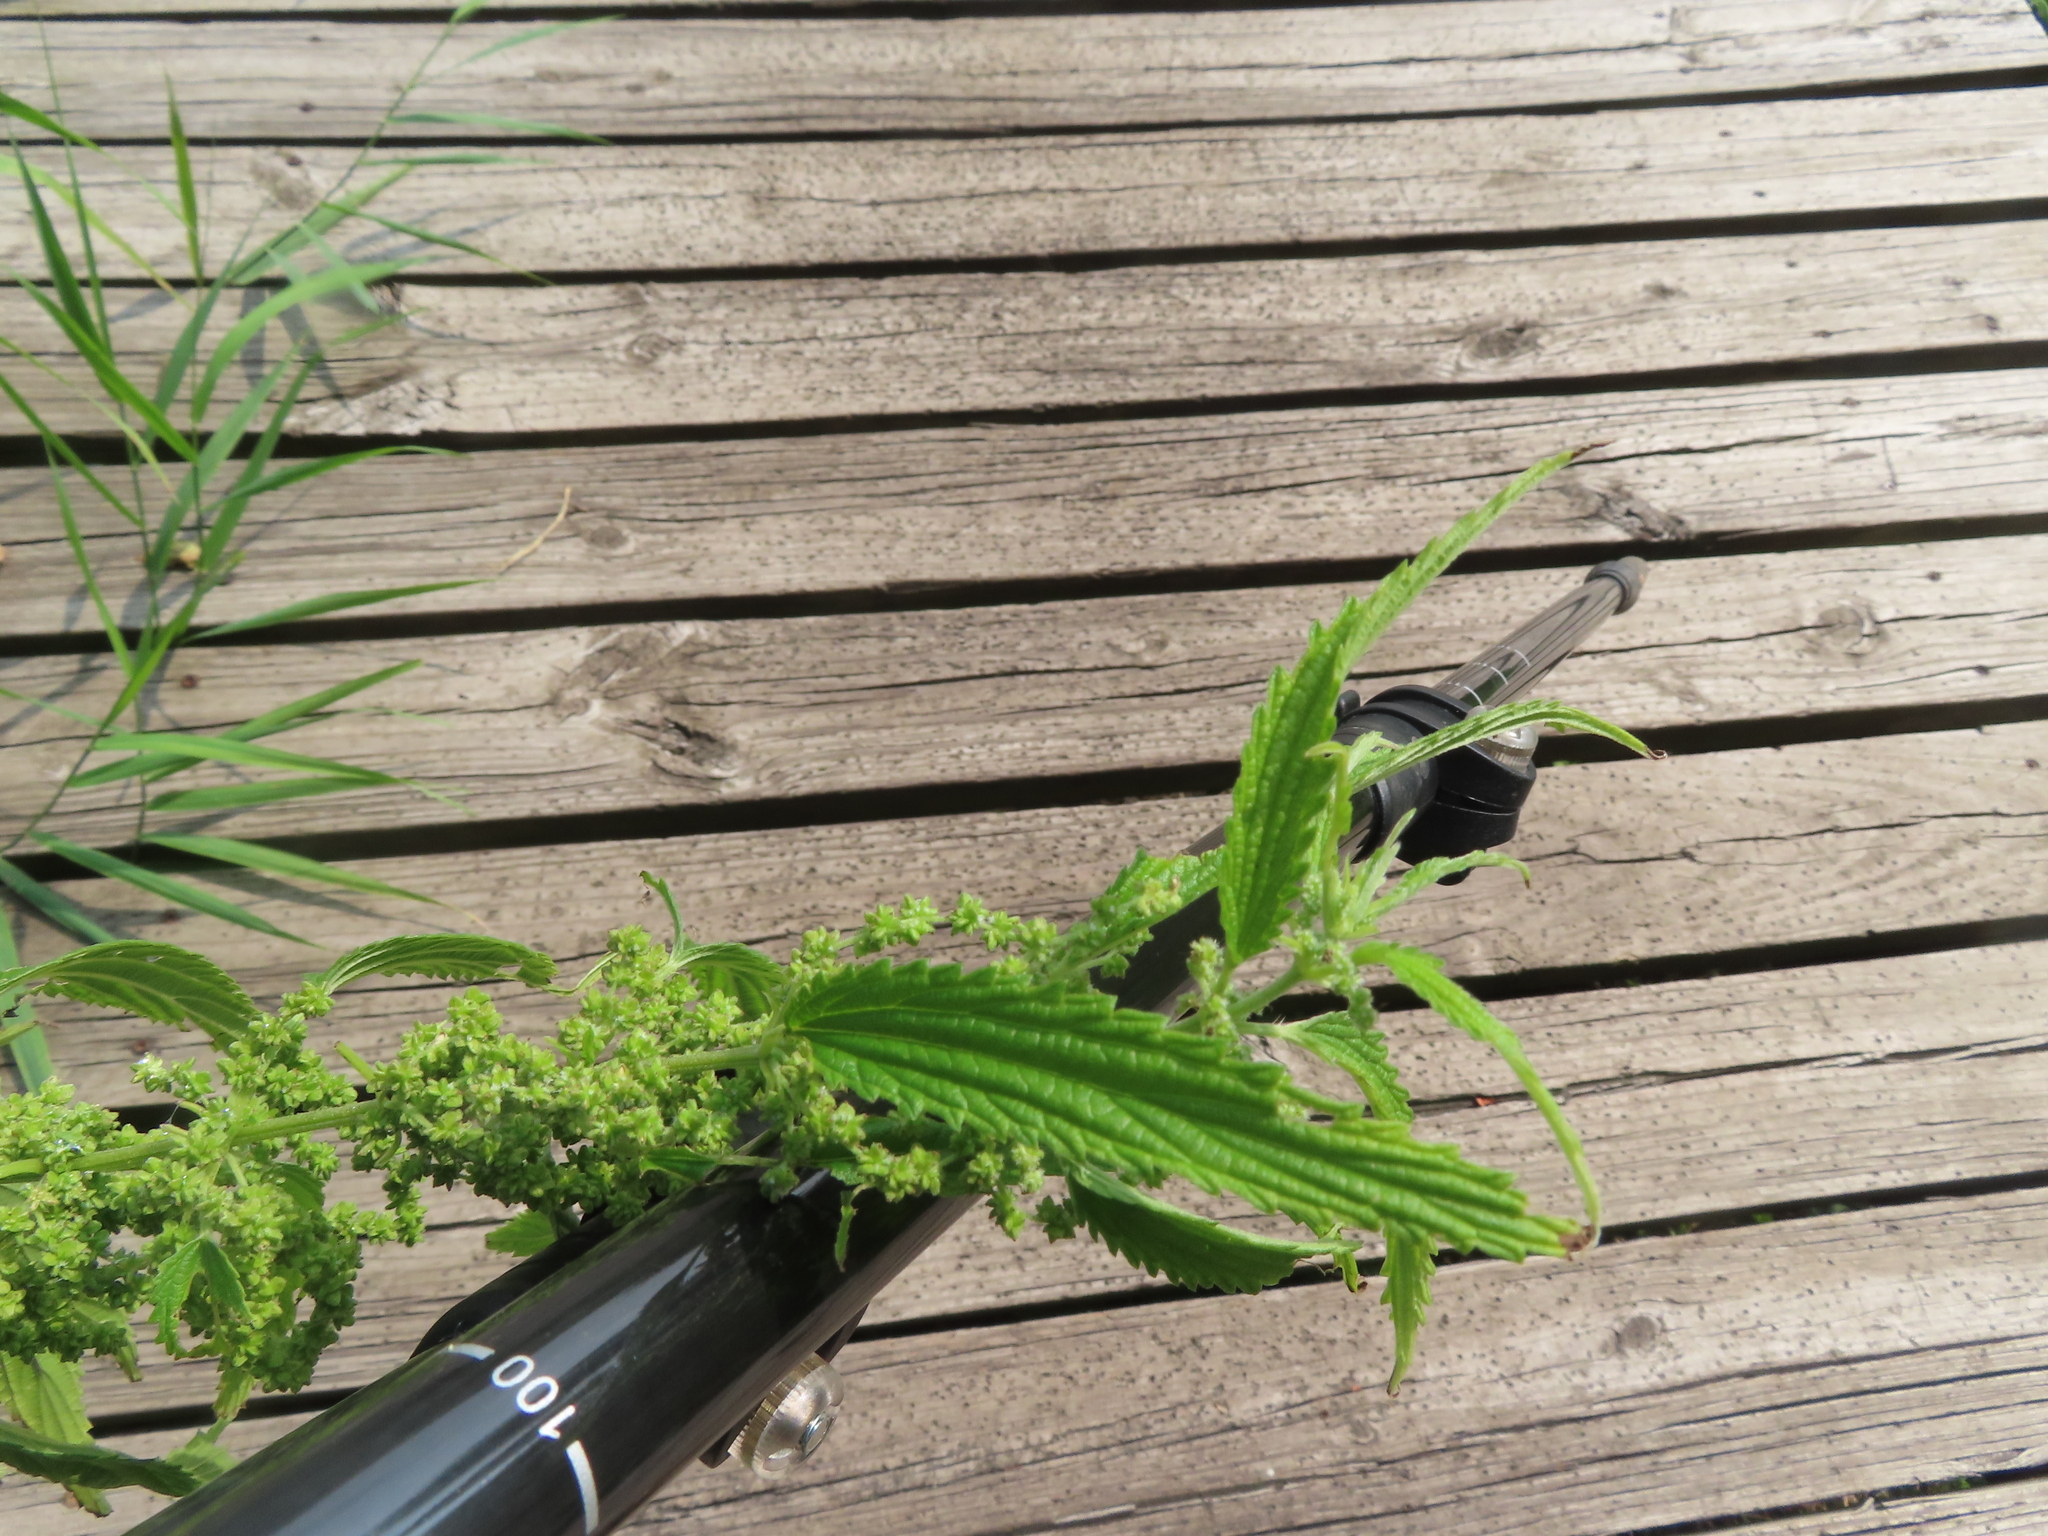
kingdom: Plantae
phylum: Tracheophyta
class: Magnoliopsida
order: Rosales
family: Urticaceae
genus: Urtica
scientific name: Urtica gracilis
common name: Slender stinging nettle
